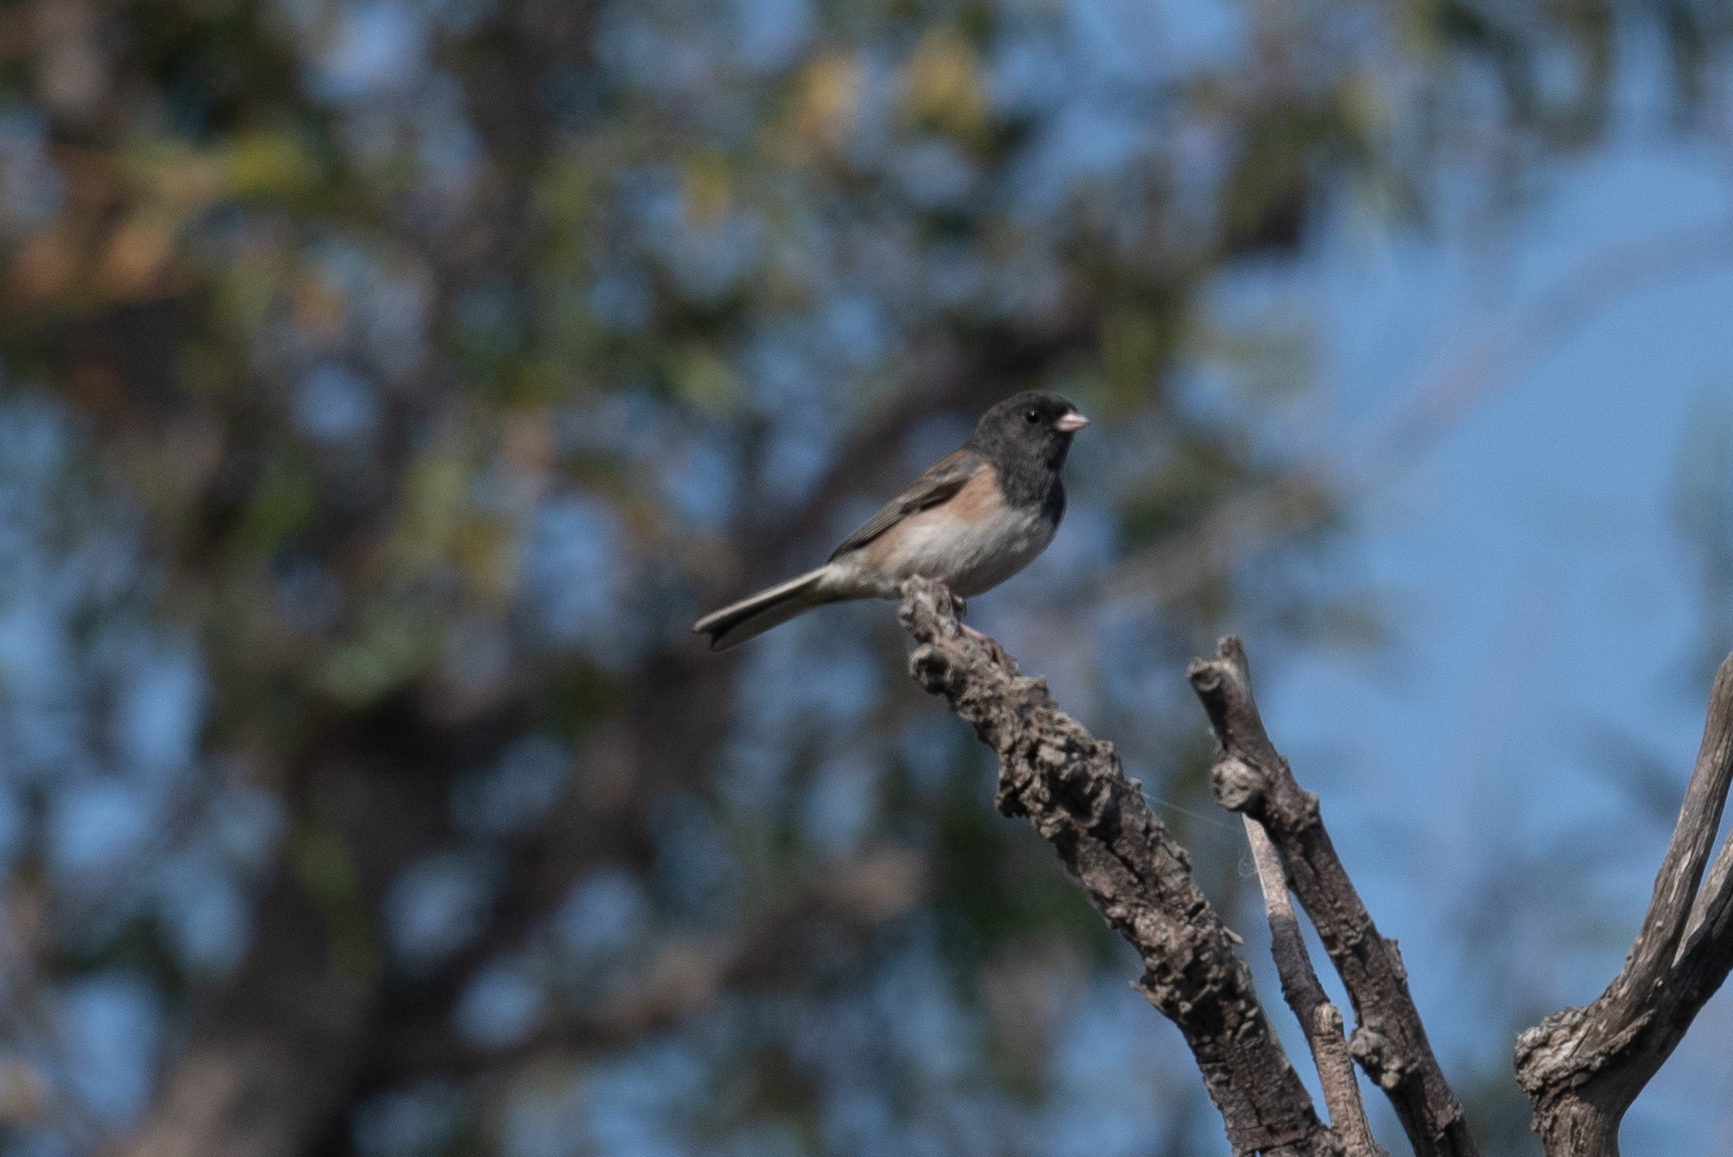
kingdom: Animalia
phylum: Chordata
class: Aves
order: Passeriformes
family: Passerellidae
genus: Junco
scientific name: Junco hyemalis
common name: Dark-eyed junco
